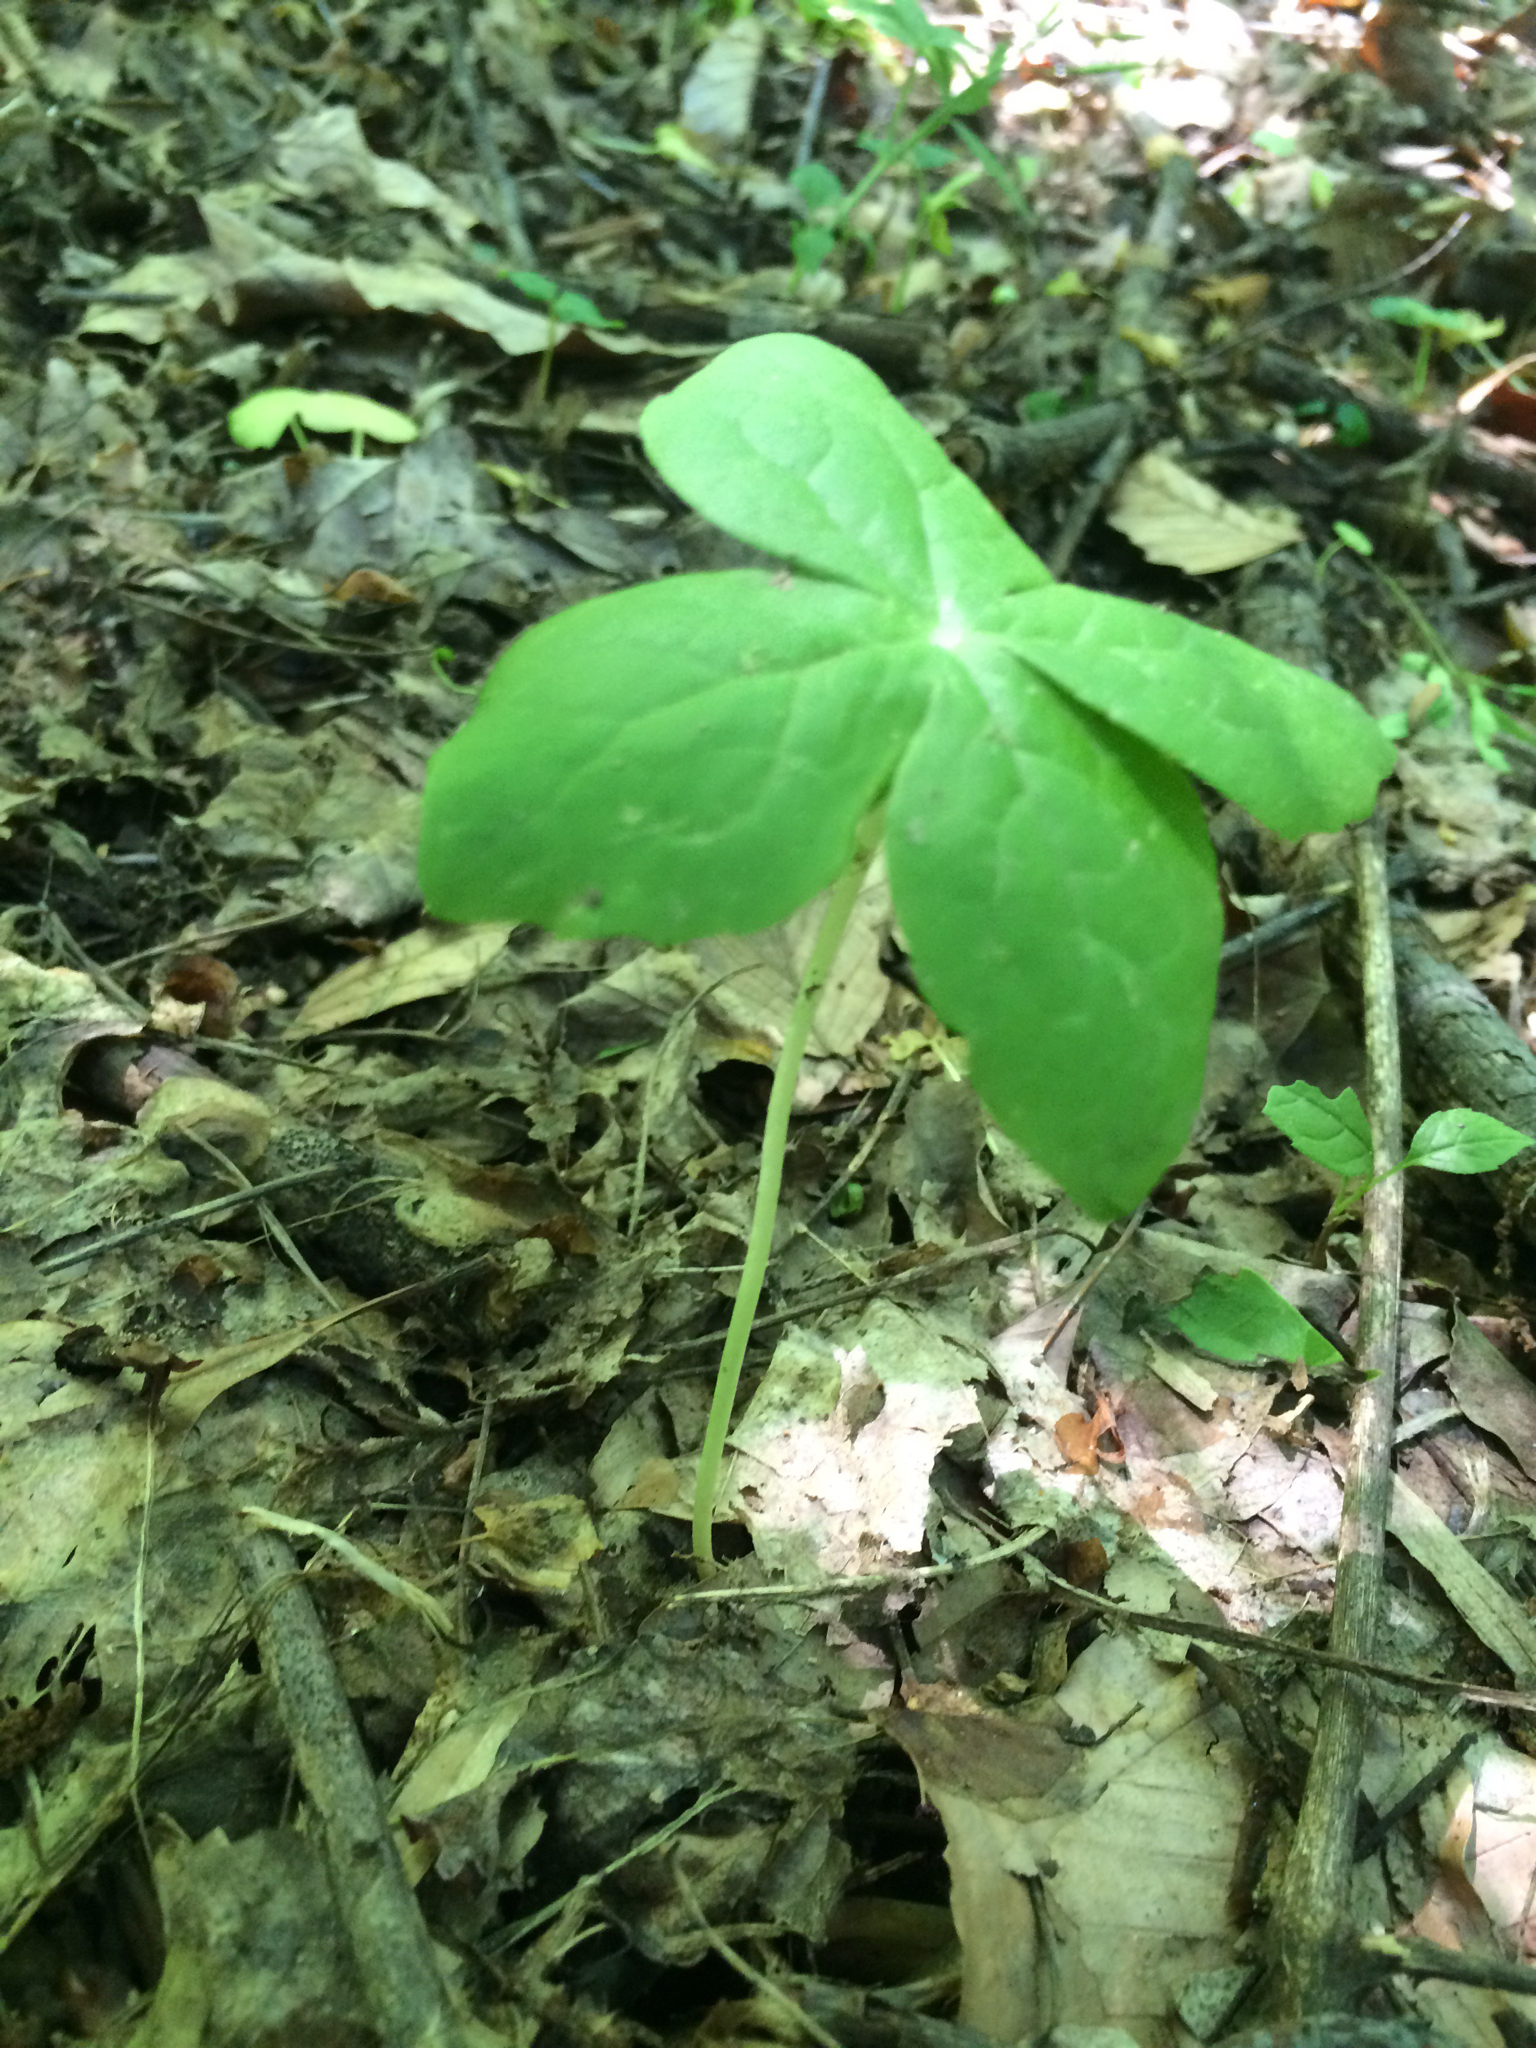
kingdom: Plantae
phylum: Tracheophyta
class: Magnoliopsida
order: Ranunculales
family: Berberidaceae
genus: Podophyllum
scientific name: Podophyllum peltatum
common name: Wild mandrake
